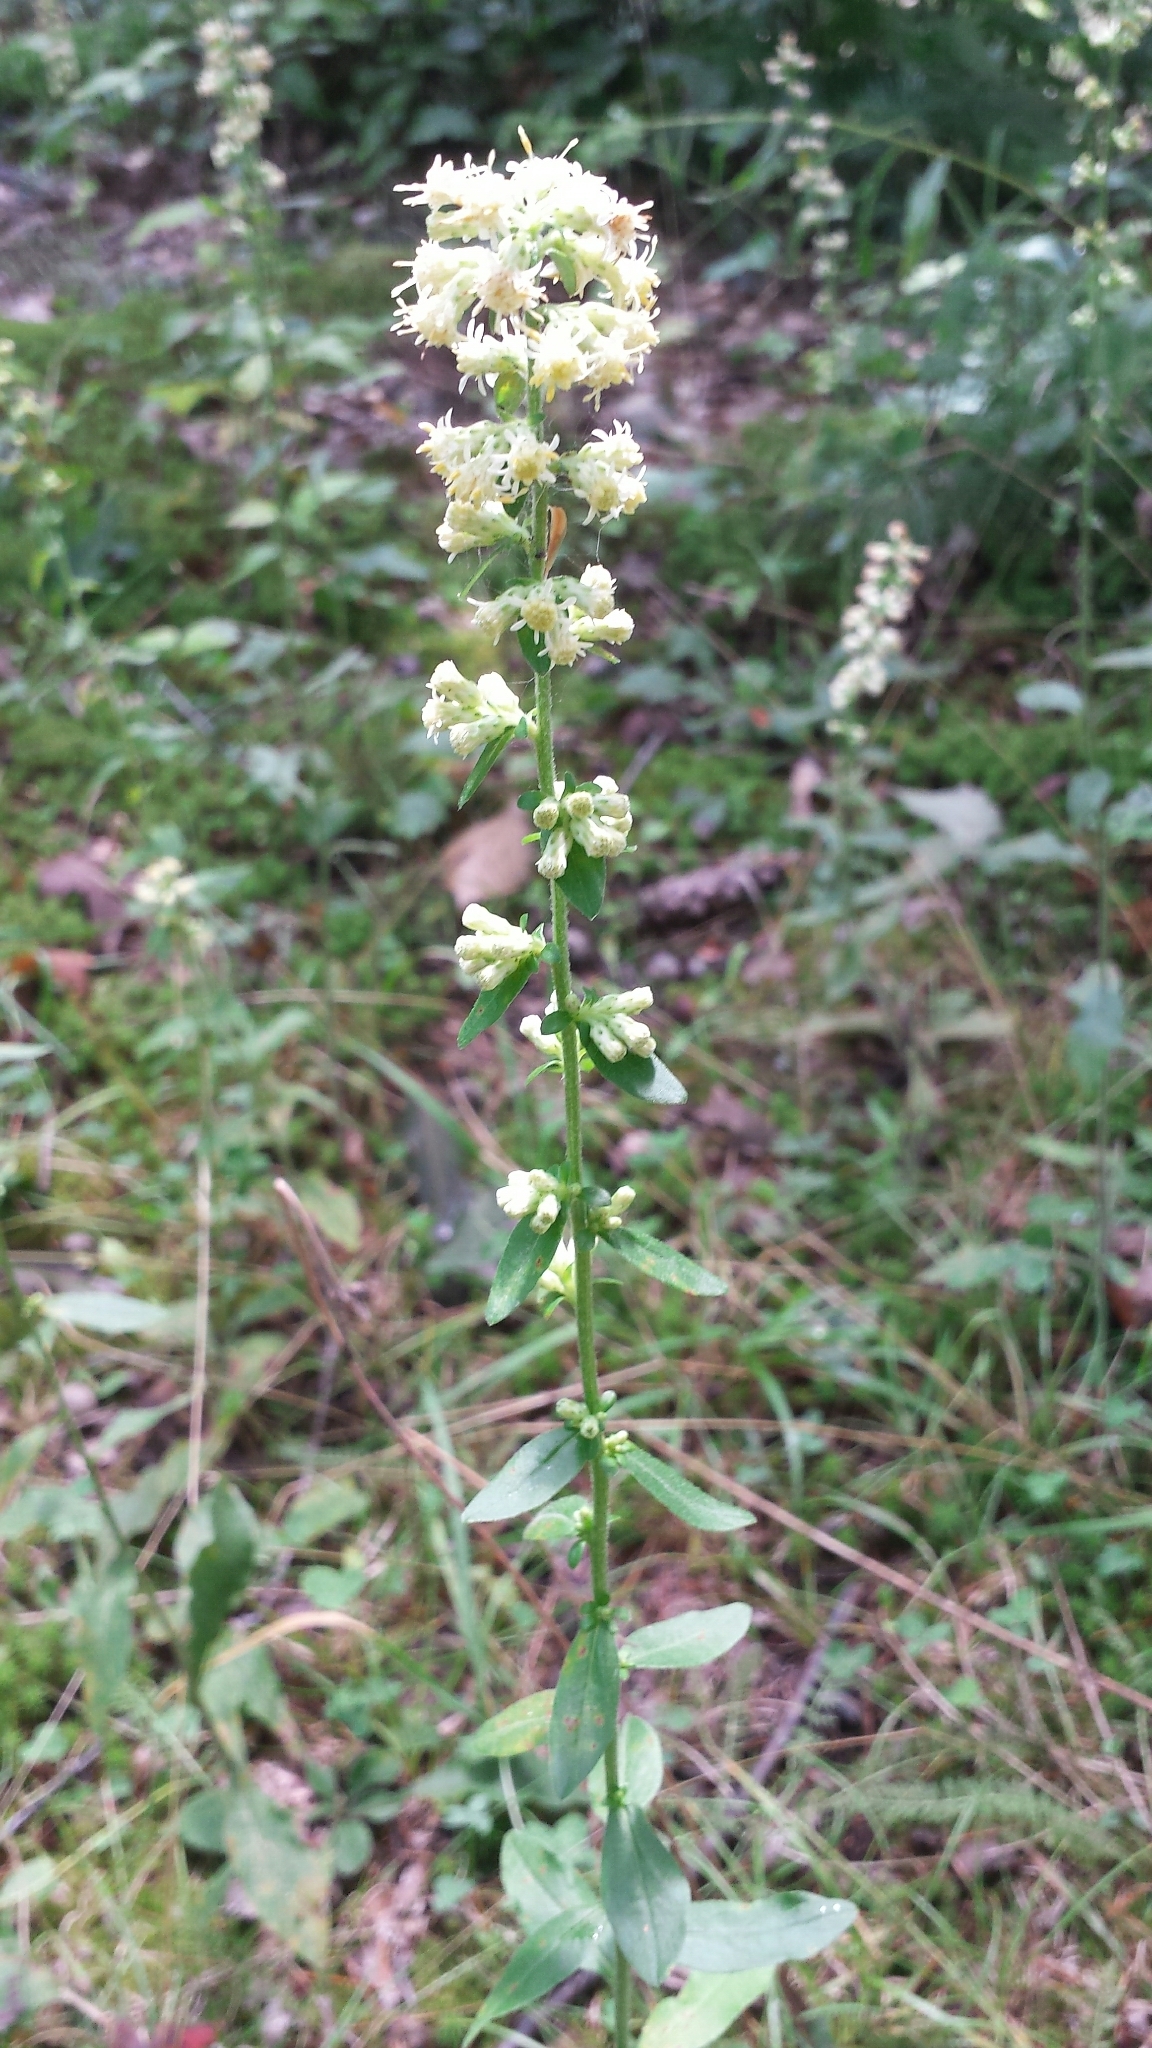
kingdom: Plantae
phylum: Tracheophyta
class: Magnoliopsida
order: Asterales
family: Asteraceae
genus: Solidago
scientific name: Solidago bicolor
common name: Silverrod
